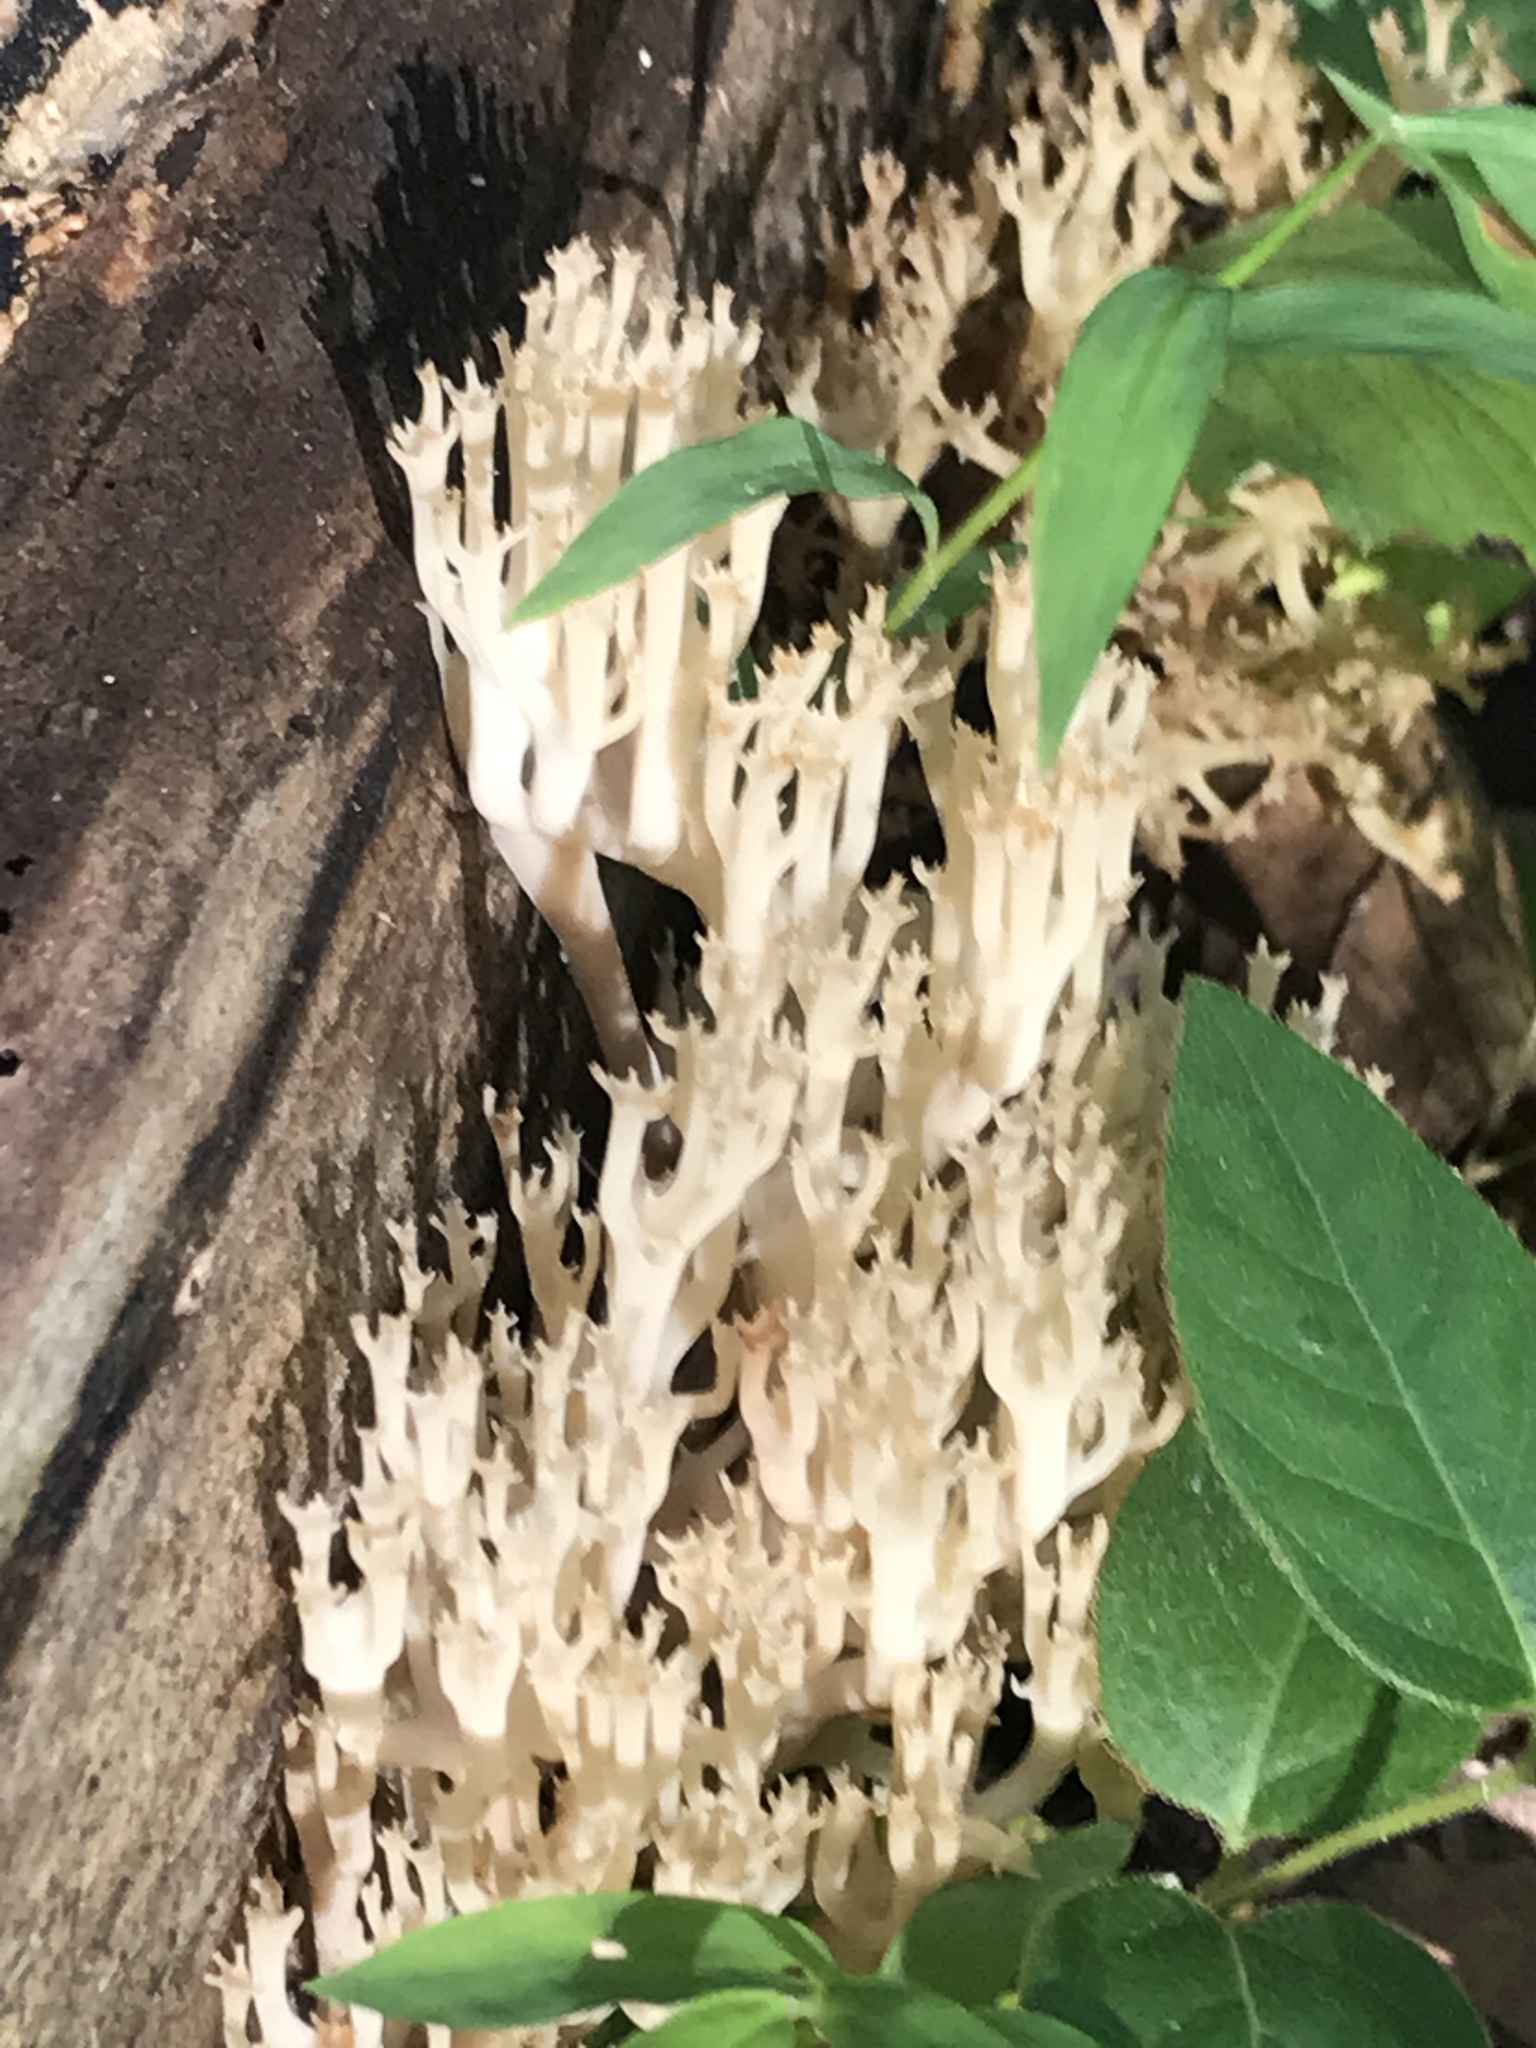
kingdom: Fungi
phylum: Basidiomycota
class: Agaricomycetes
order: Russulales
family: Auriscalpiaceae
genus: Artomyces
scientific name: Artomyces pyxidatus
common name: Crown-tipped coral fungus
